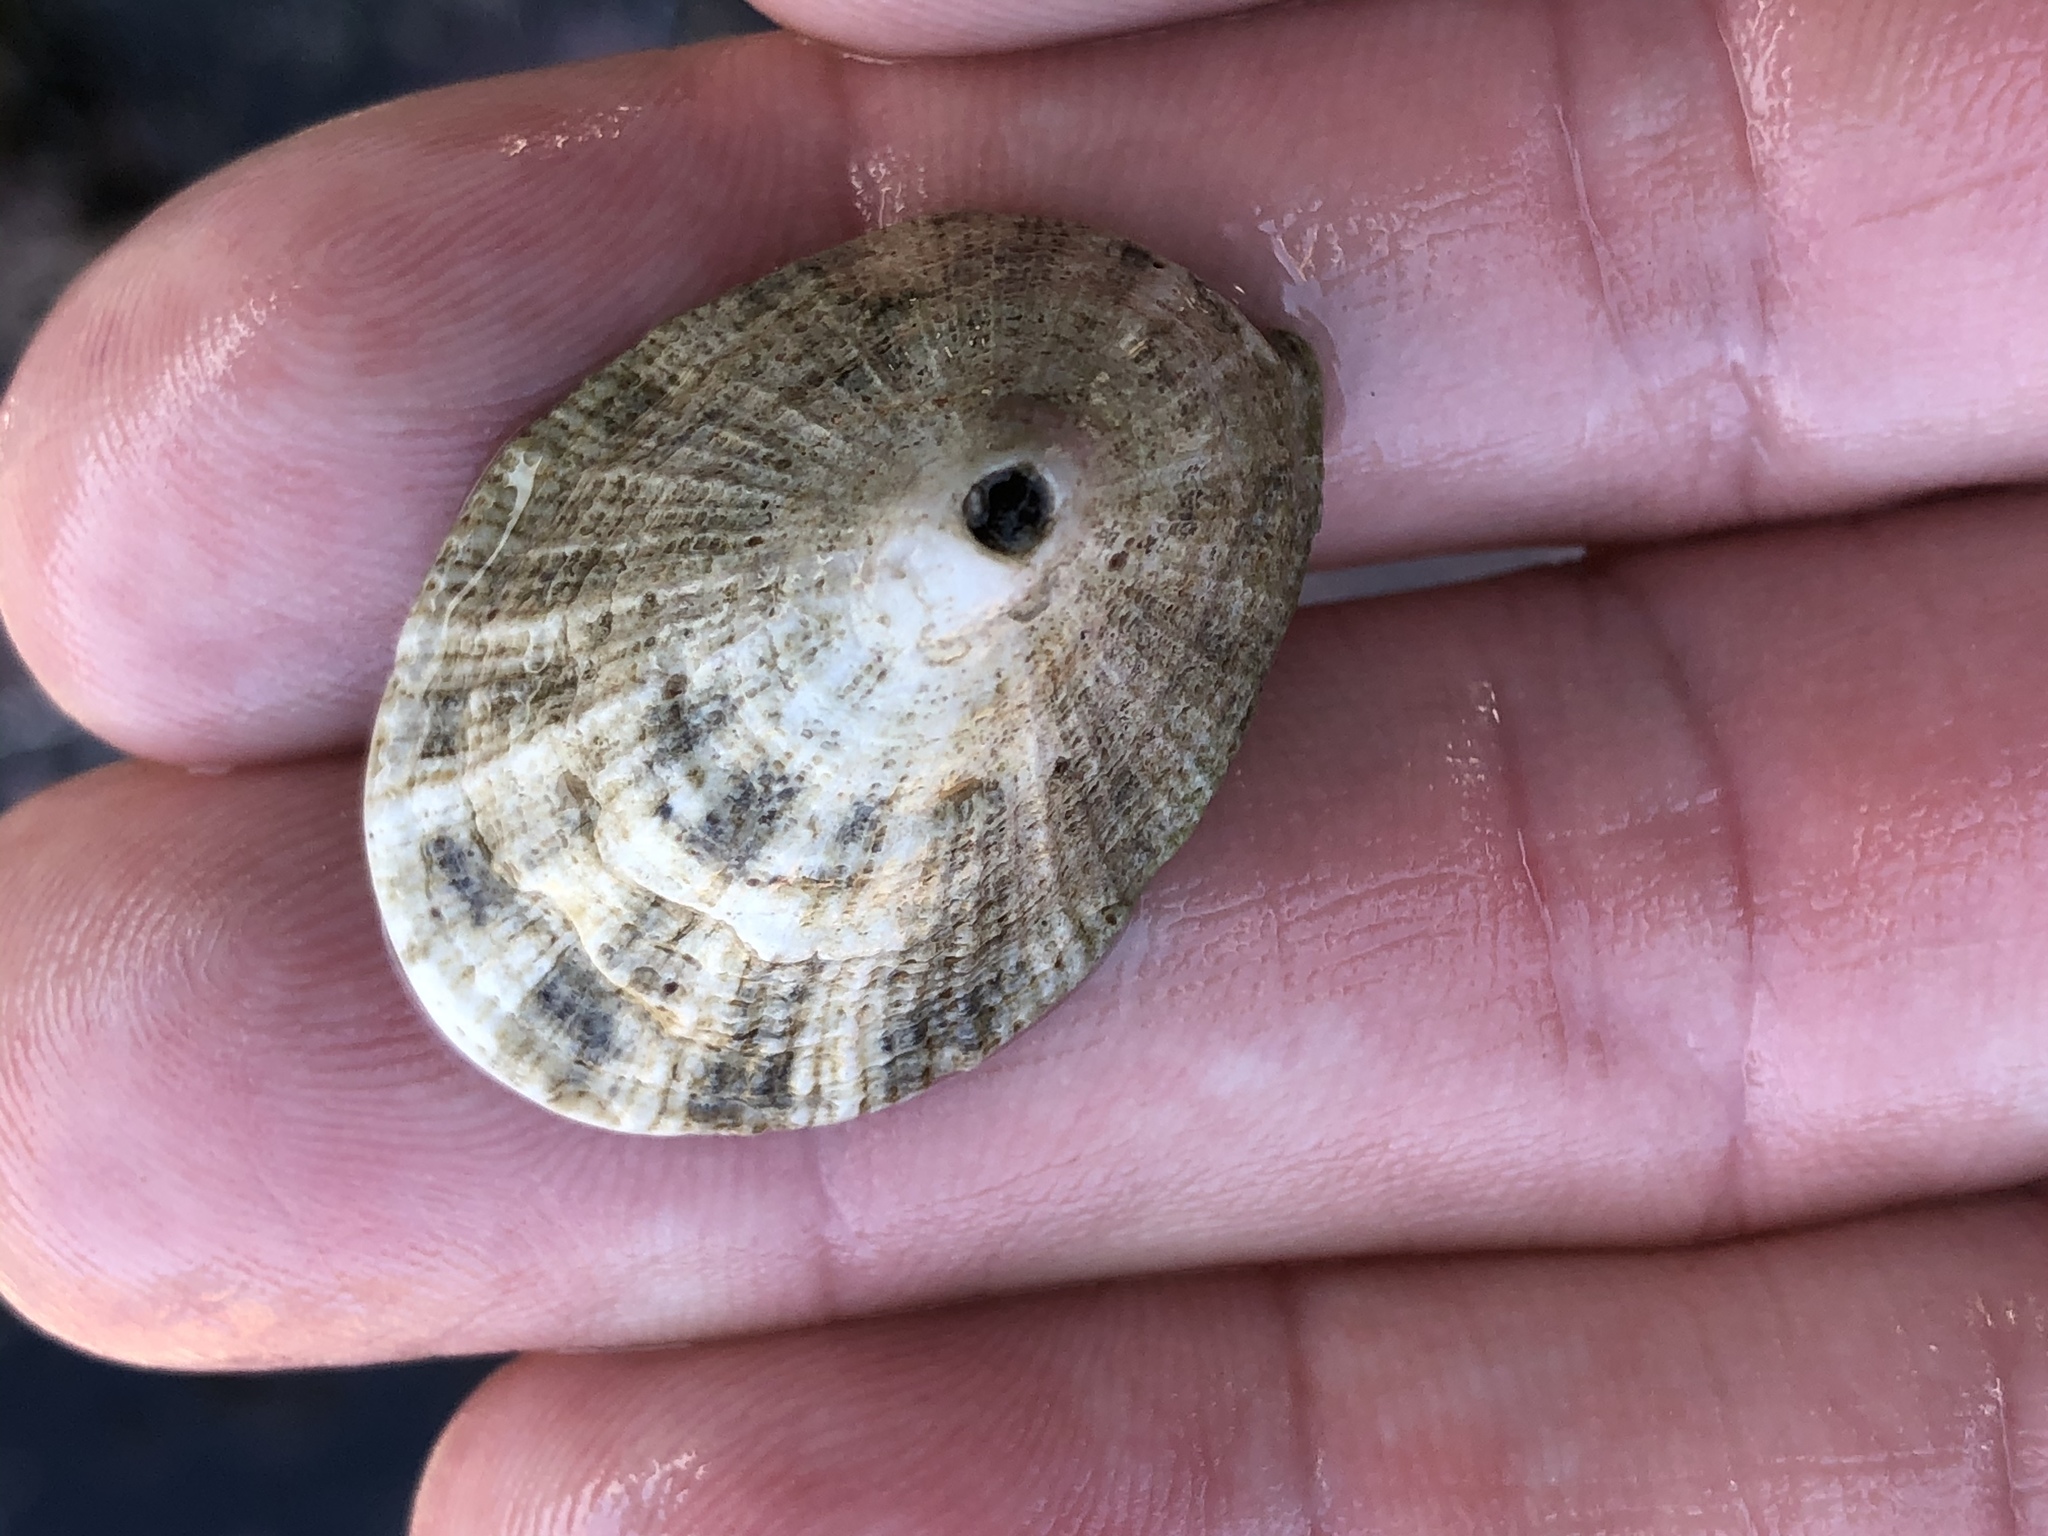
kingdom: Animalia
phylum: Mollusca
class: Gastropoda
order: Lepetellida
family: Fissurellidae
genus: Diodora
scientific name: Diodora aspera
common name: Rough keyhole limpet
